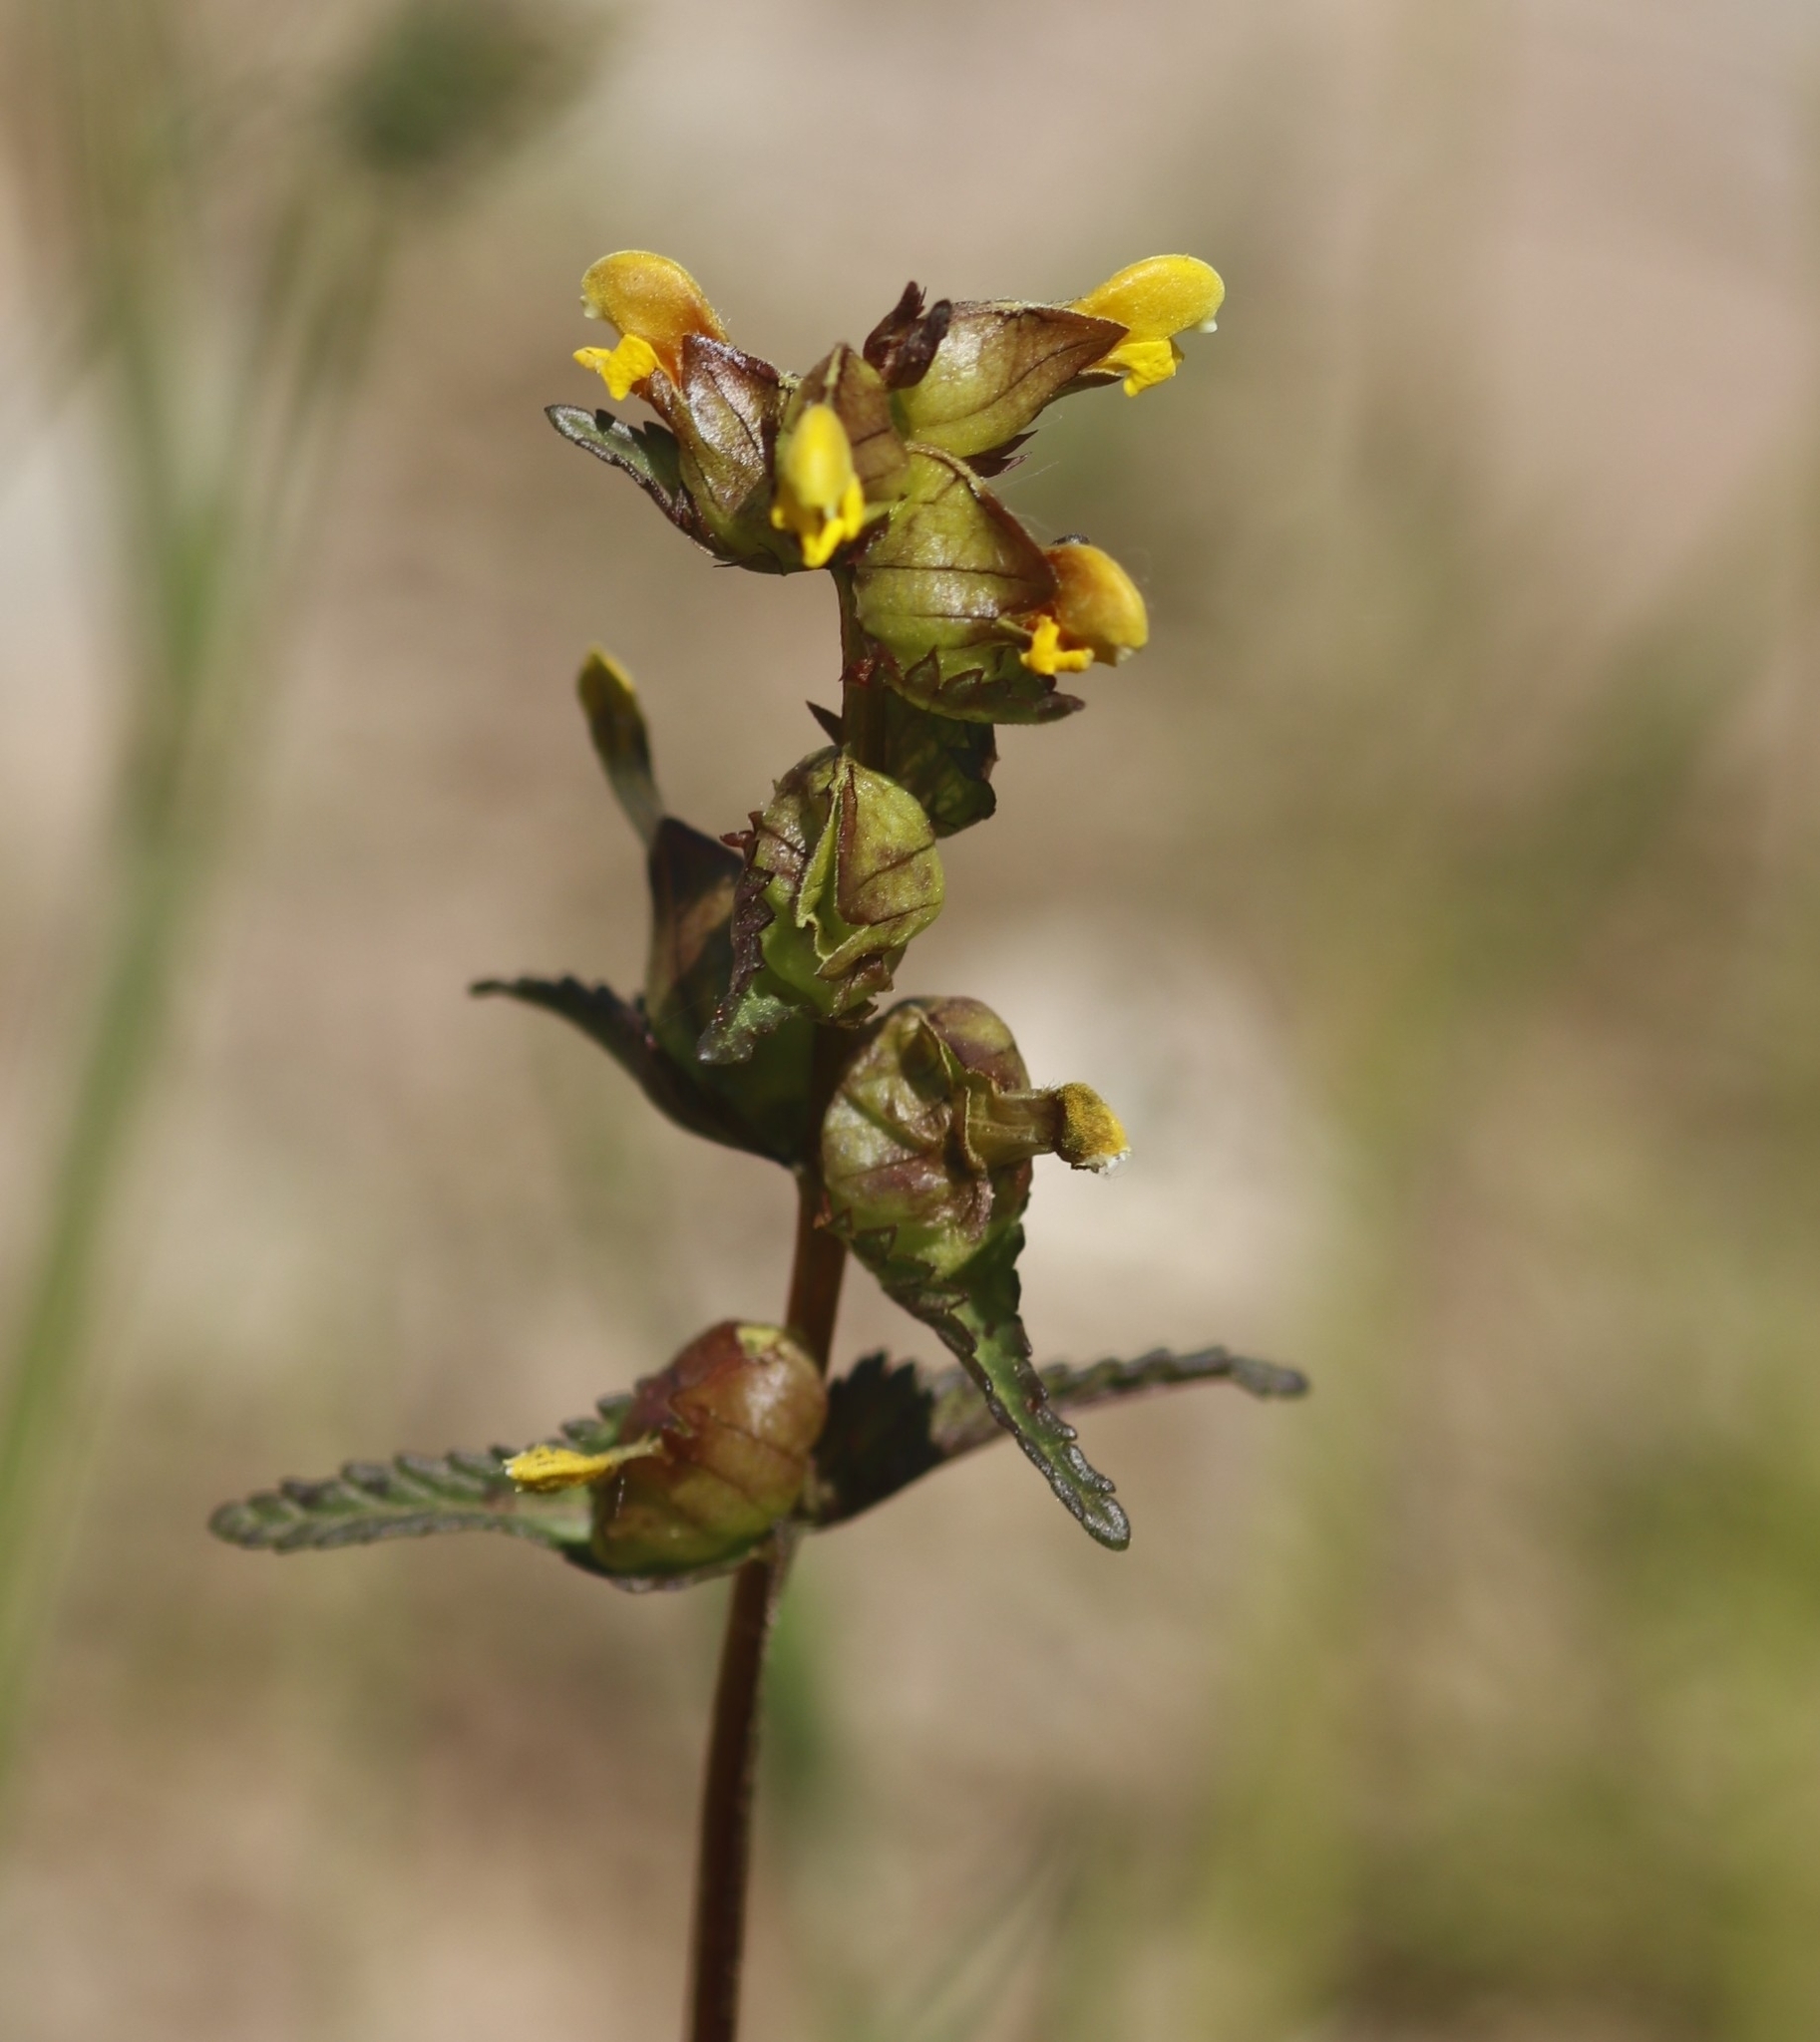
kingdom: Plantae
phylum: Tracheophyta
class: Magnoliopsida
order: Lamiales
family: Orobanchaceae
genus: Rhinanthus
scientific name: Rhinanthus minor
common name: Yellow-rattle
